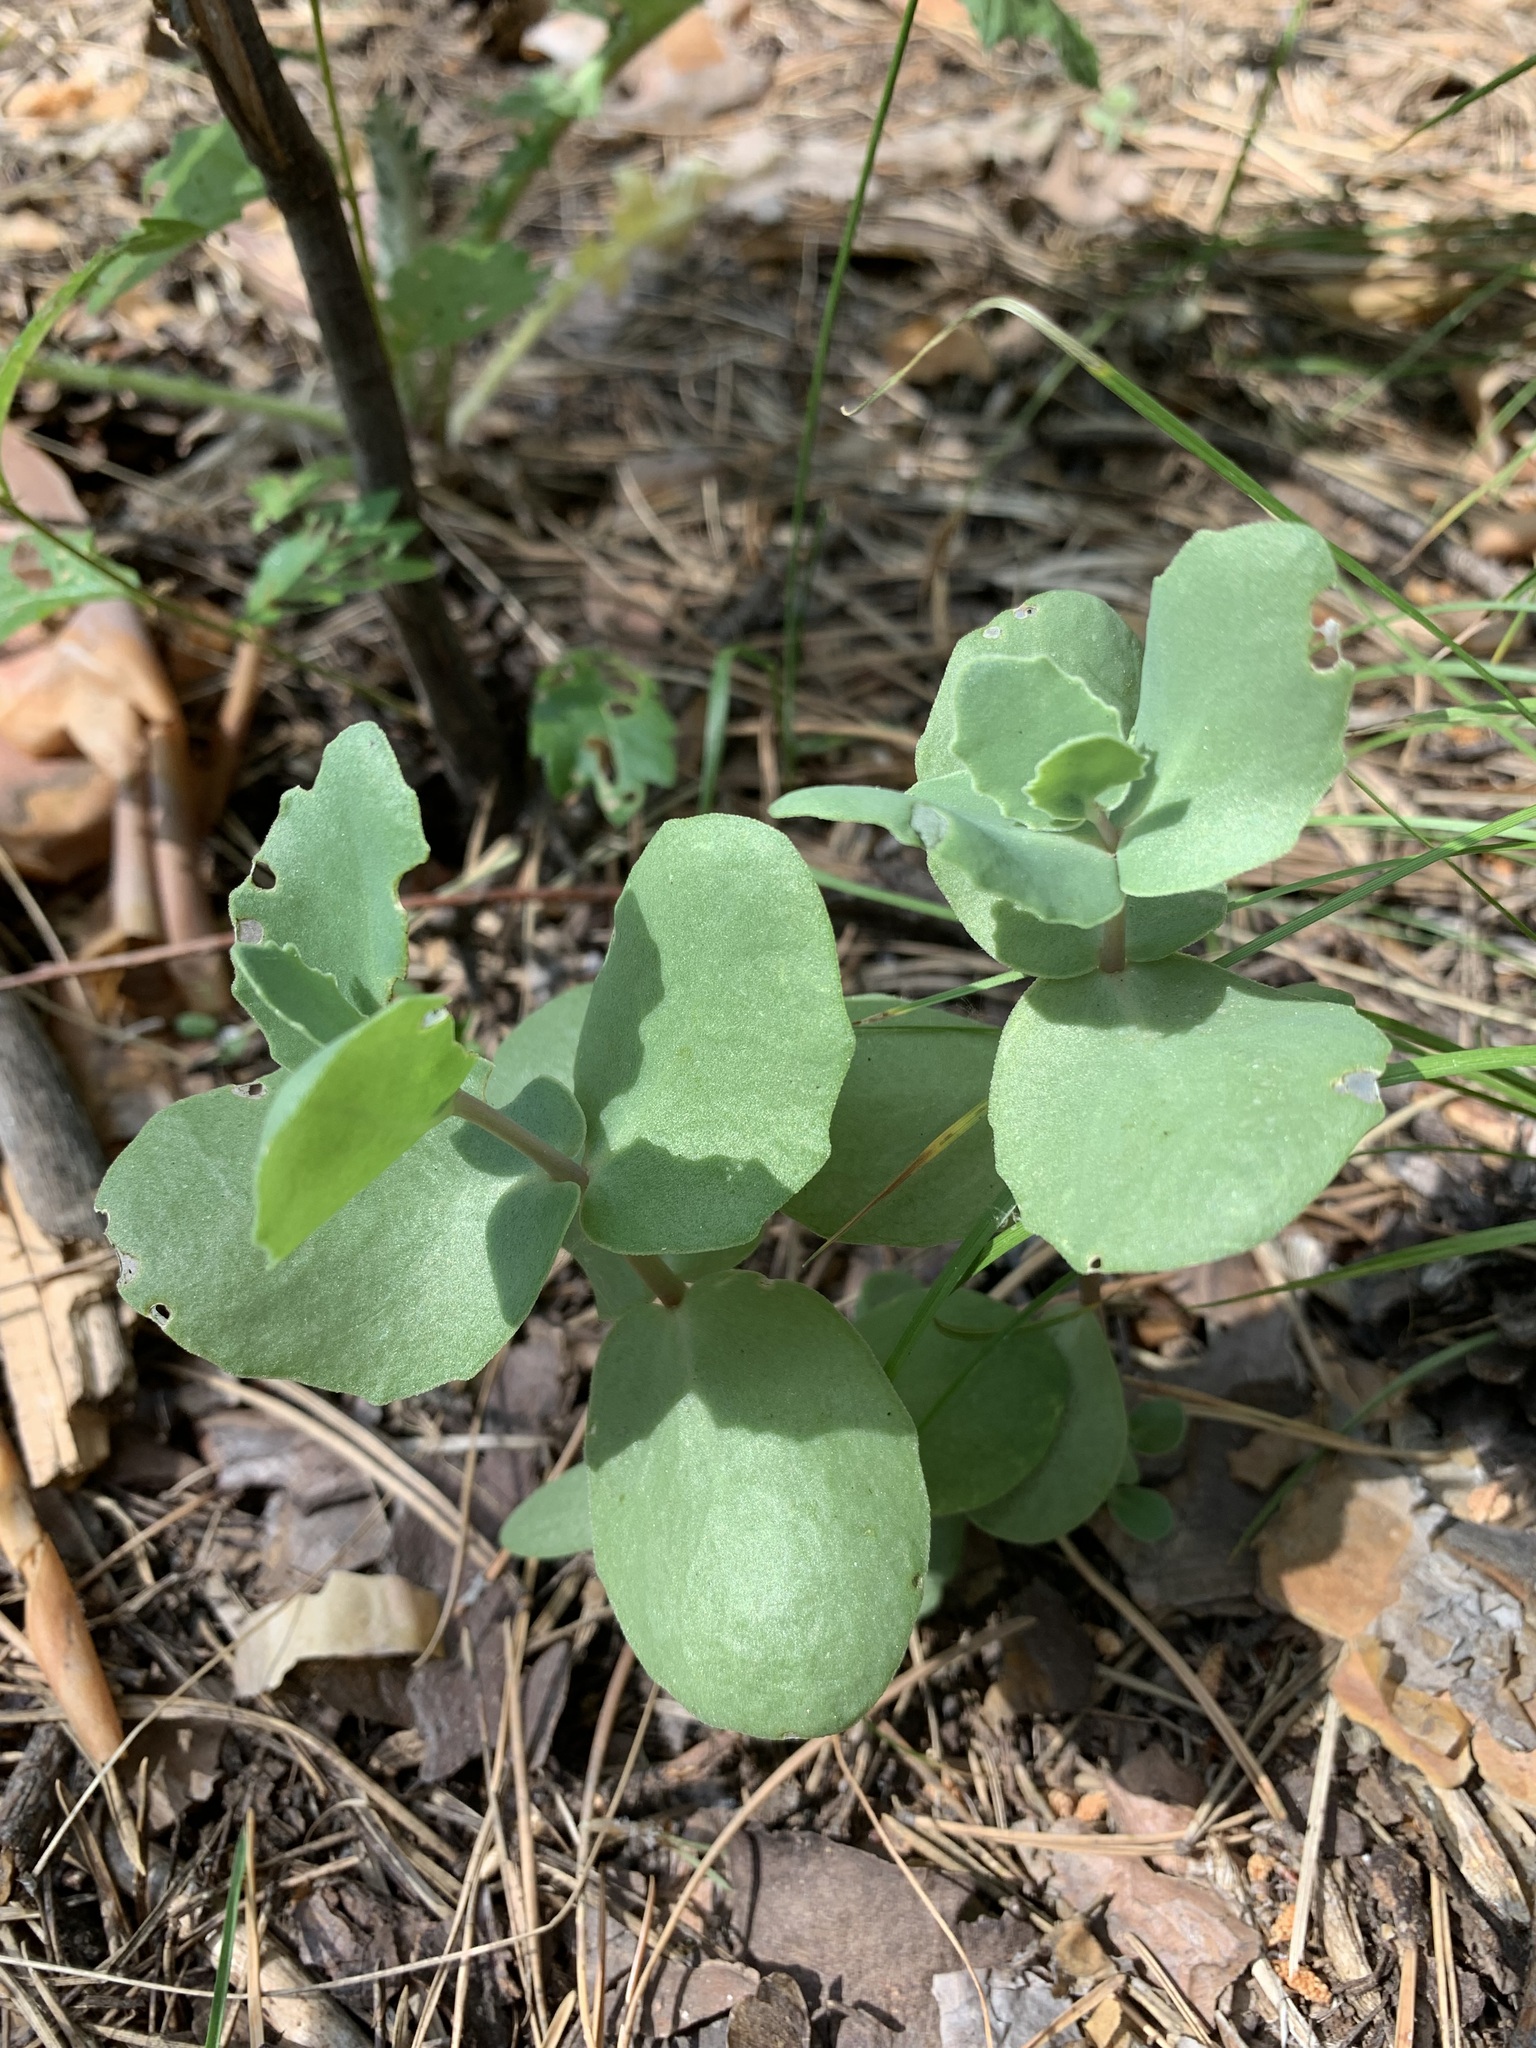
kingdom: Plantae
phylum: Tracheophyta
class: Magnoliopsida
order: Saxifragales
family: Crassulaceae
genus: Hylotelephium
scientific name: Hylotelephium maximum
